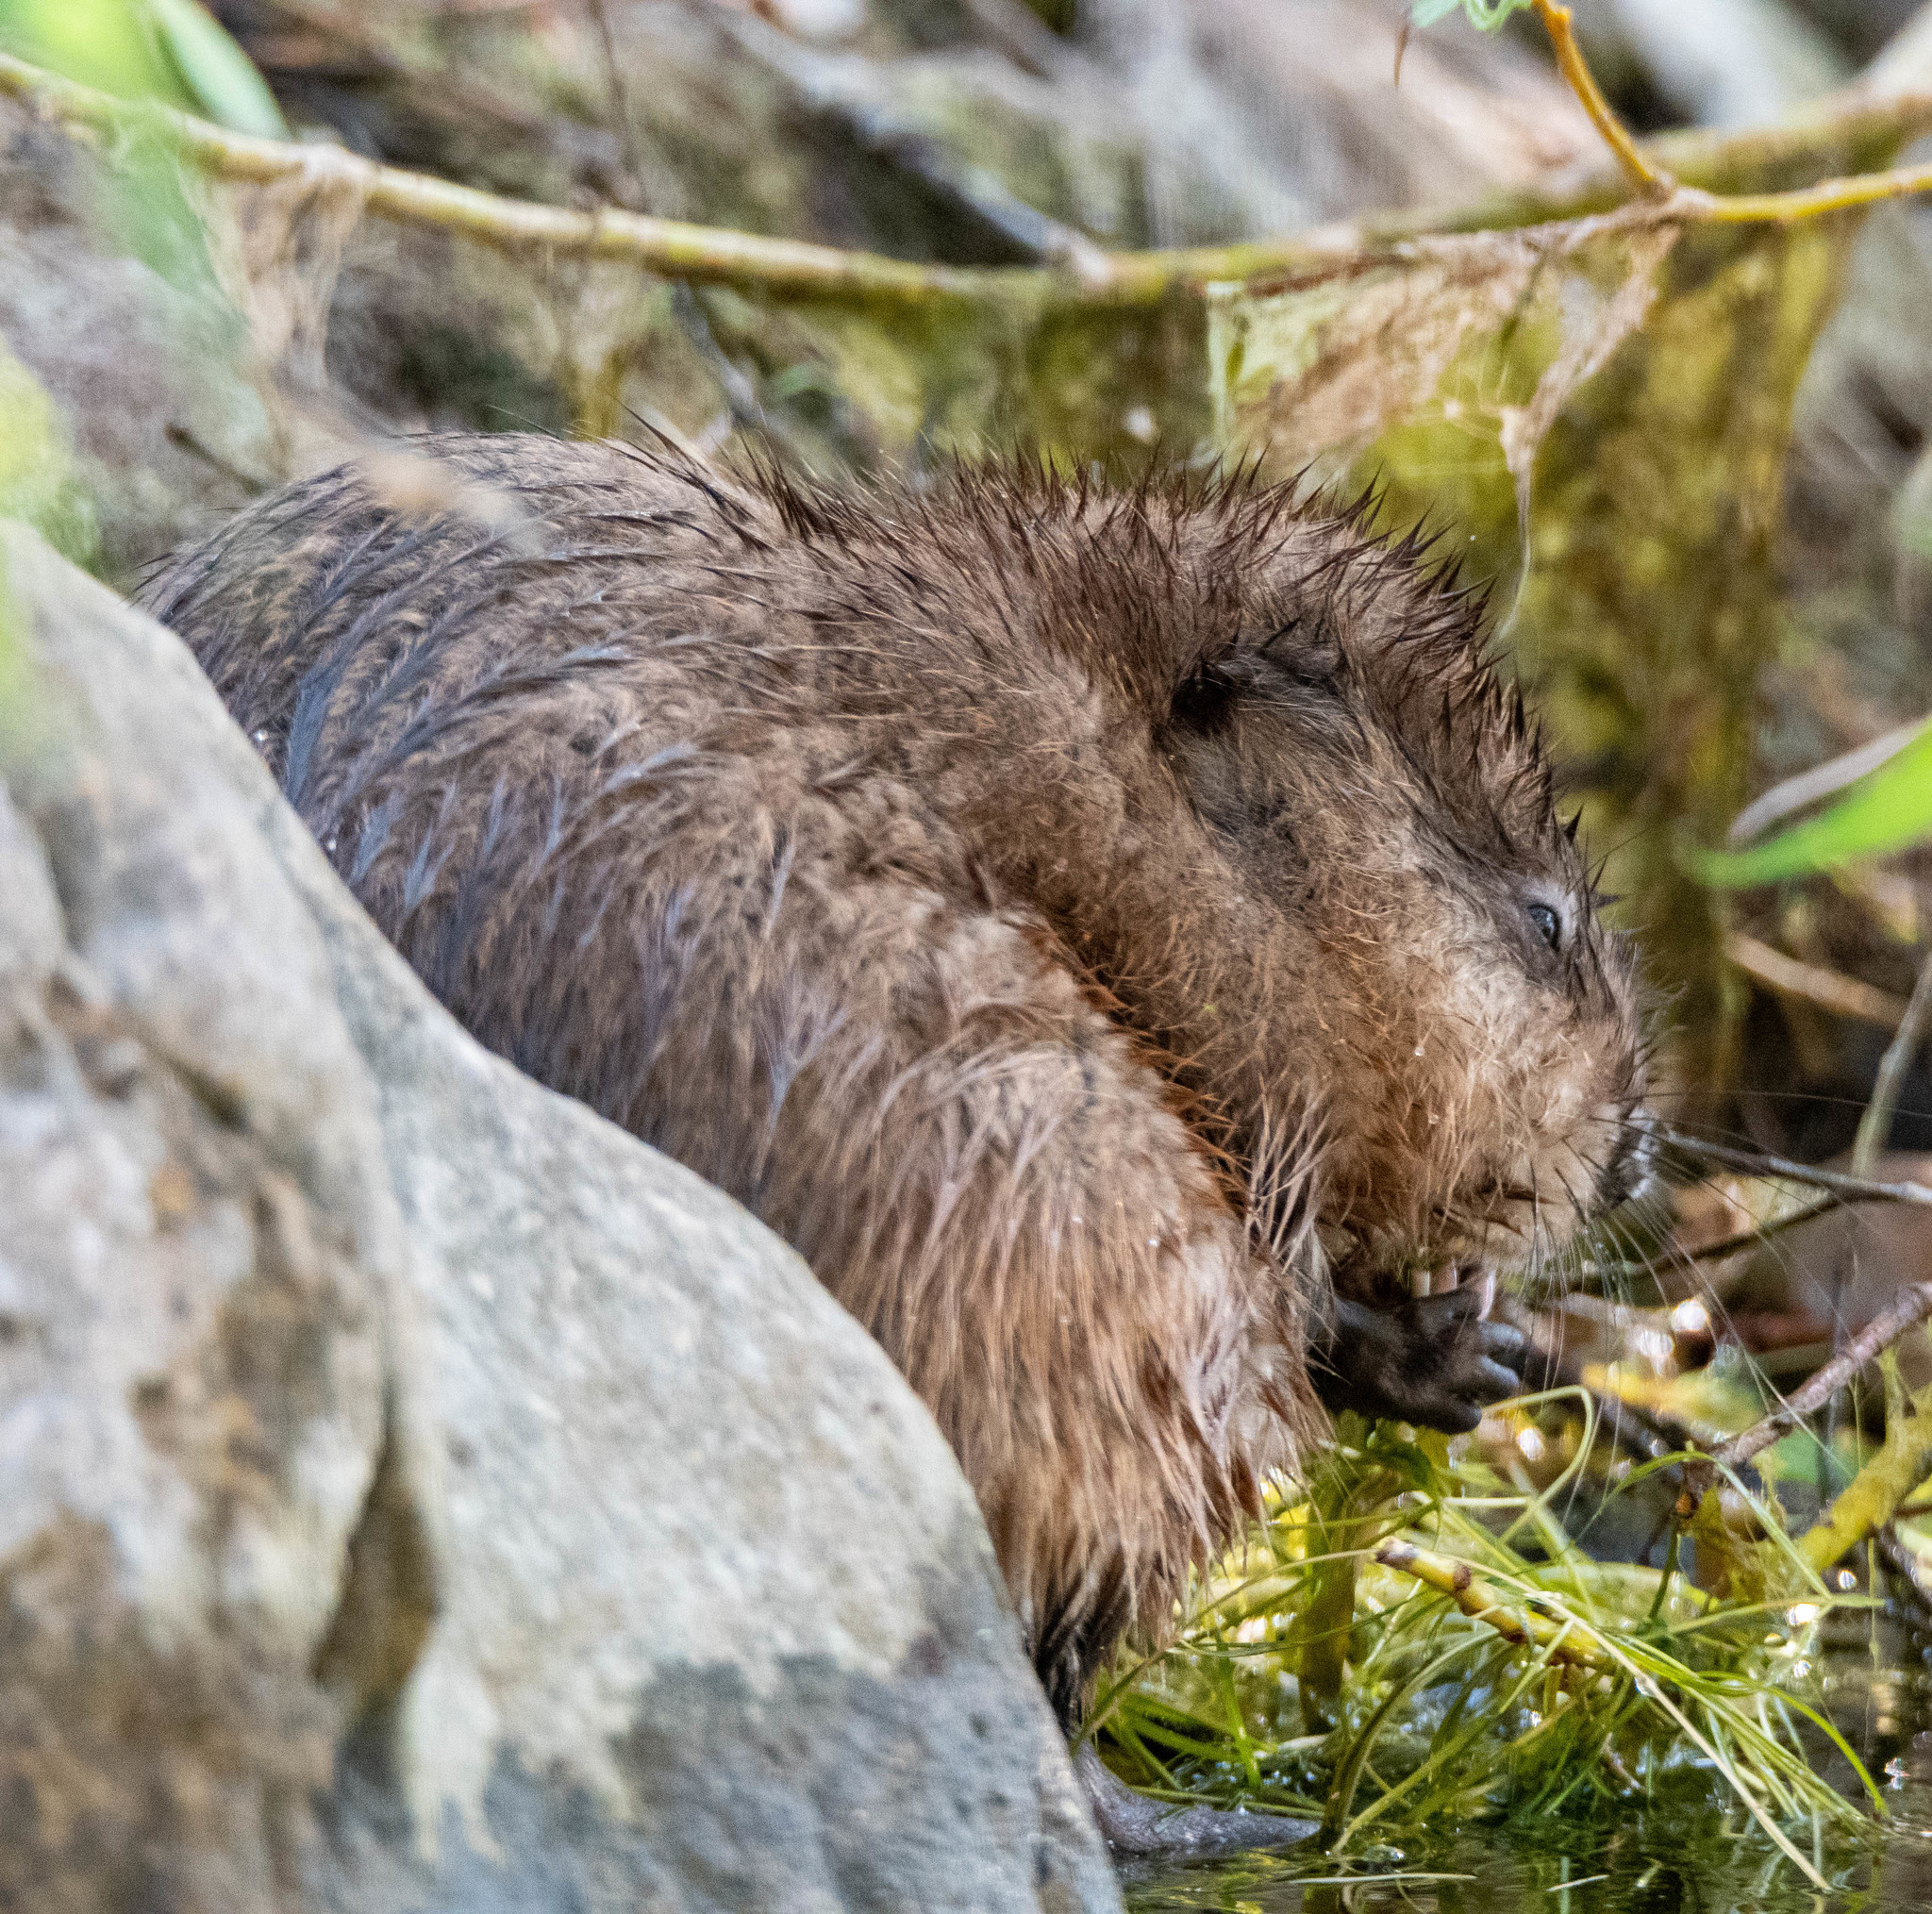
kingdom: Animalia
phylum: Chordata
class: Mammalia
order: Rodentia
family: Cricetidae
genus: Ondatra
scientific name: Ondatra zibethicus
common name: Muskrat
